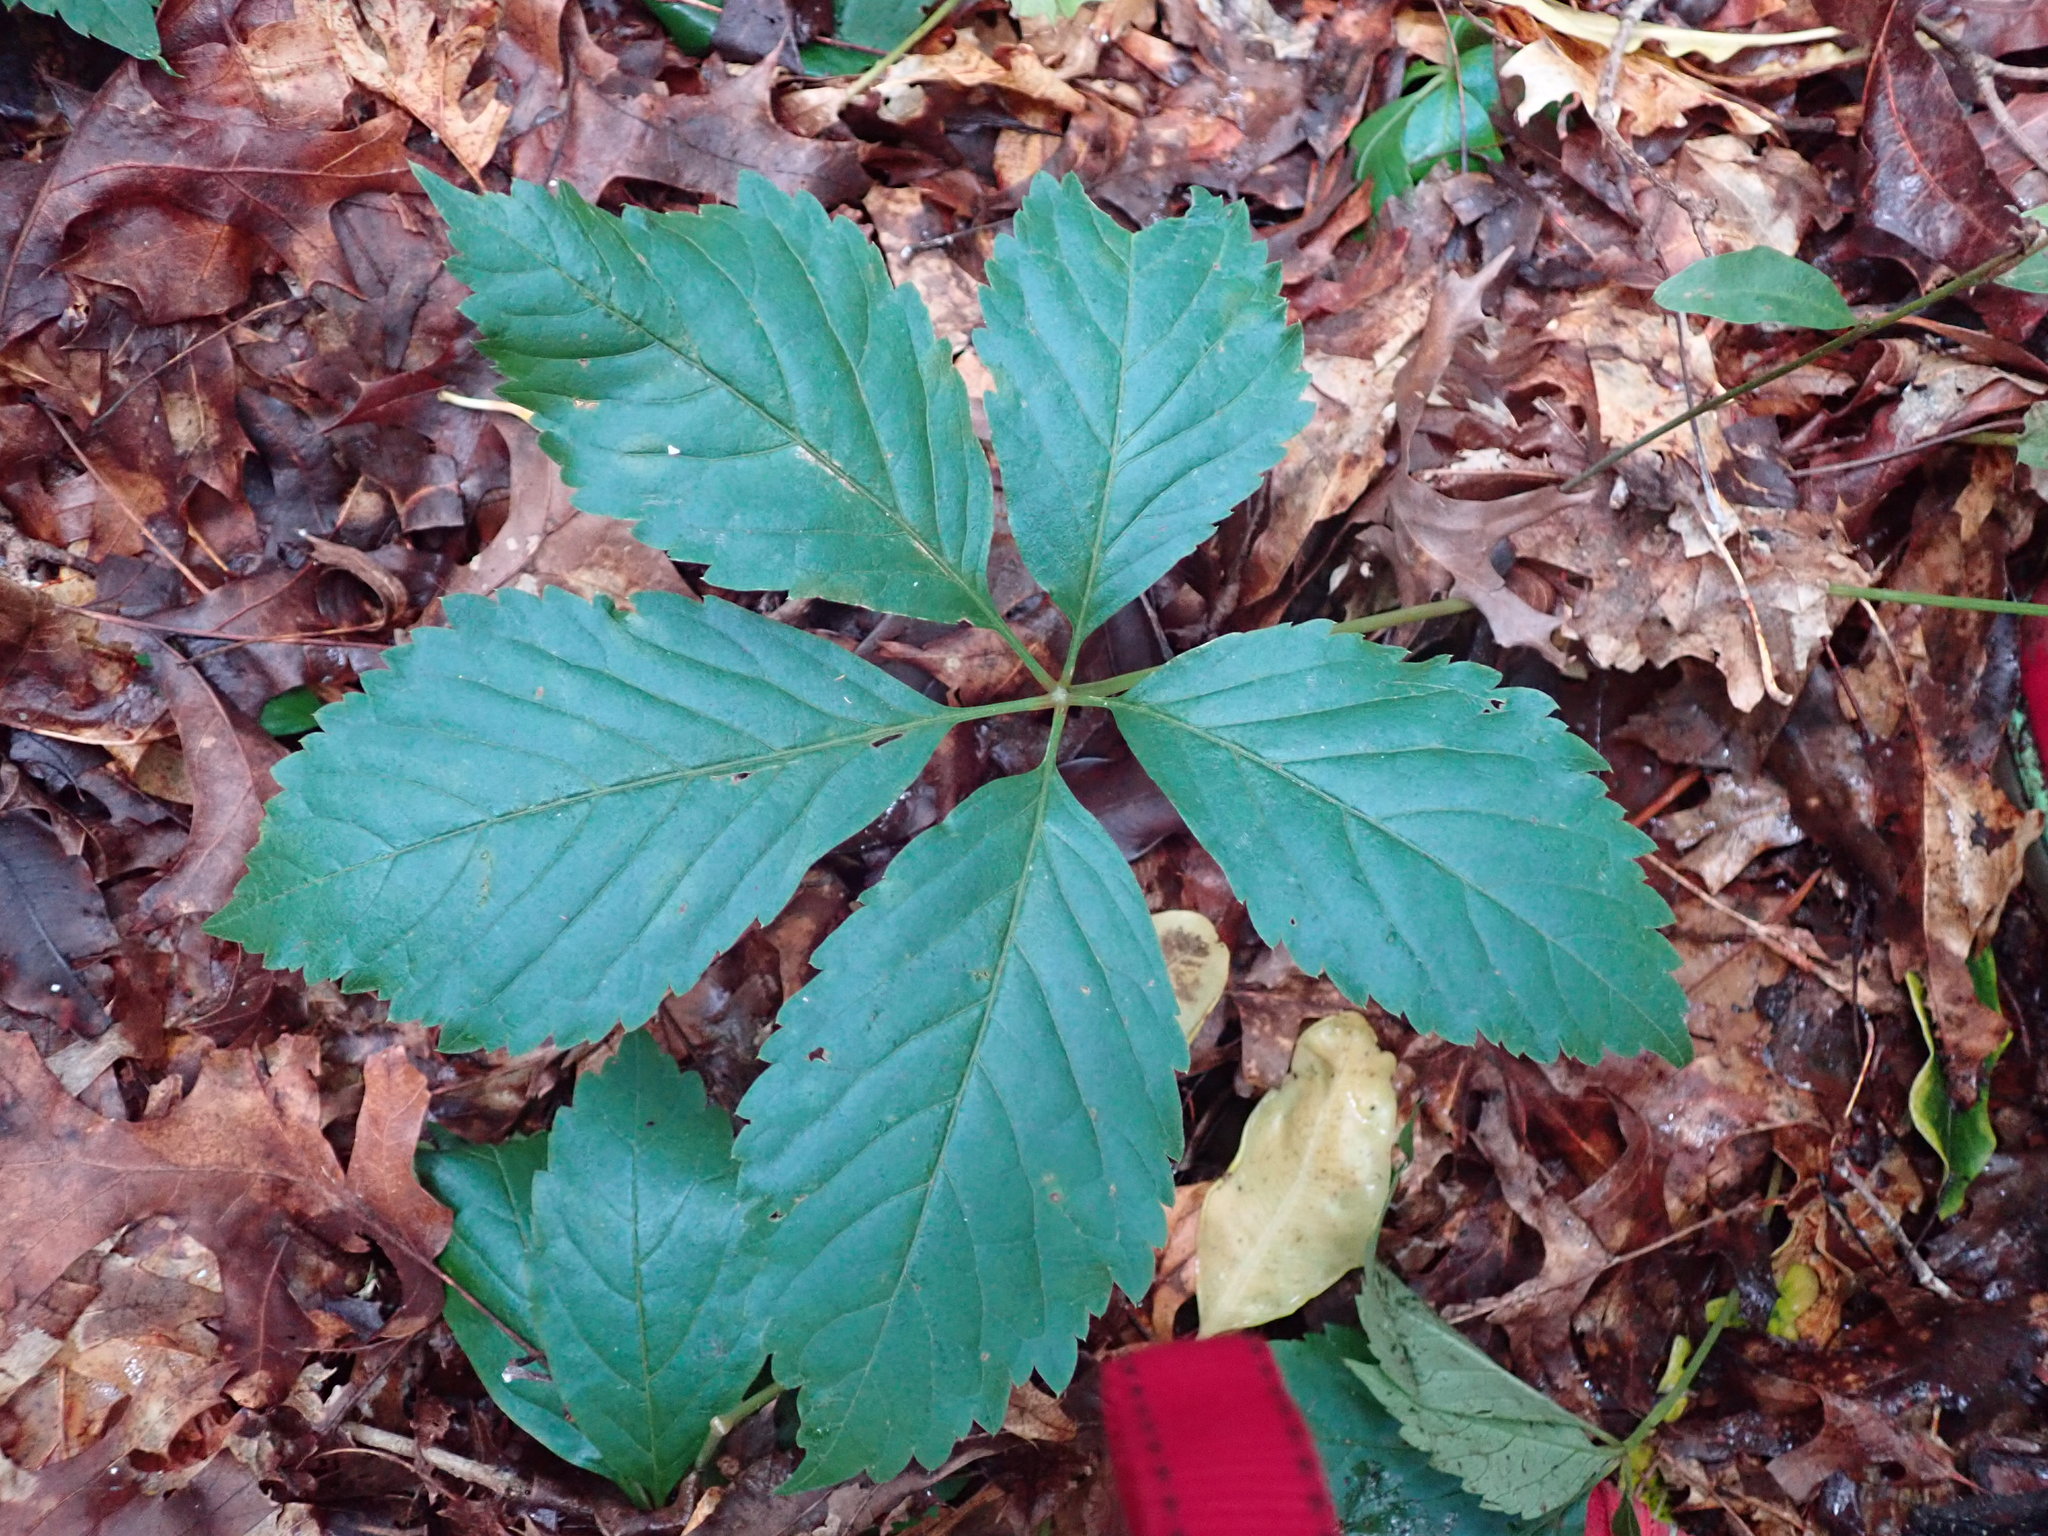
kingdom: Plantae
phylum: Tracheophyta
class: Magnoliopsida
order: Vitales
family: Vitaceae
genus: Parthenocissus
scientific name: Parthenocissus quinquefolia
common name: Virginia-creeper
